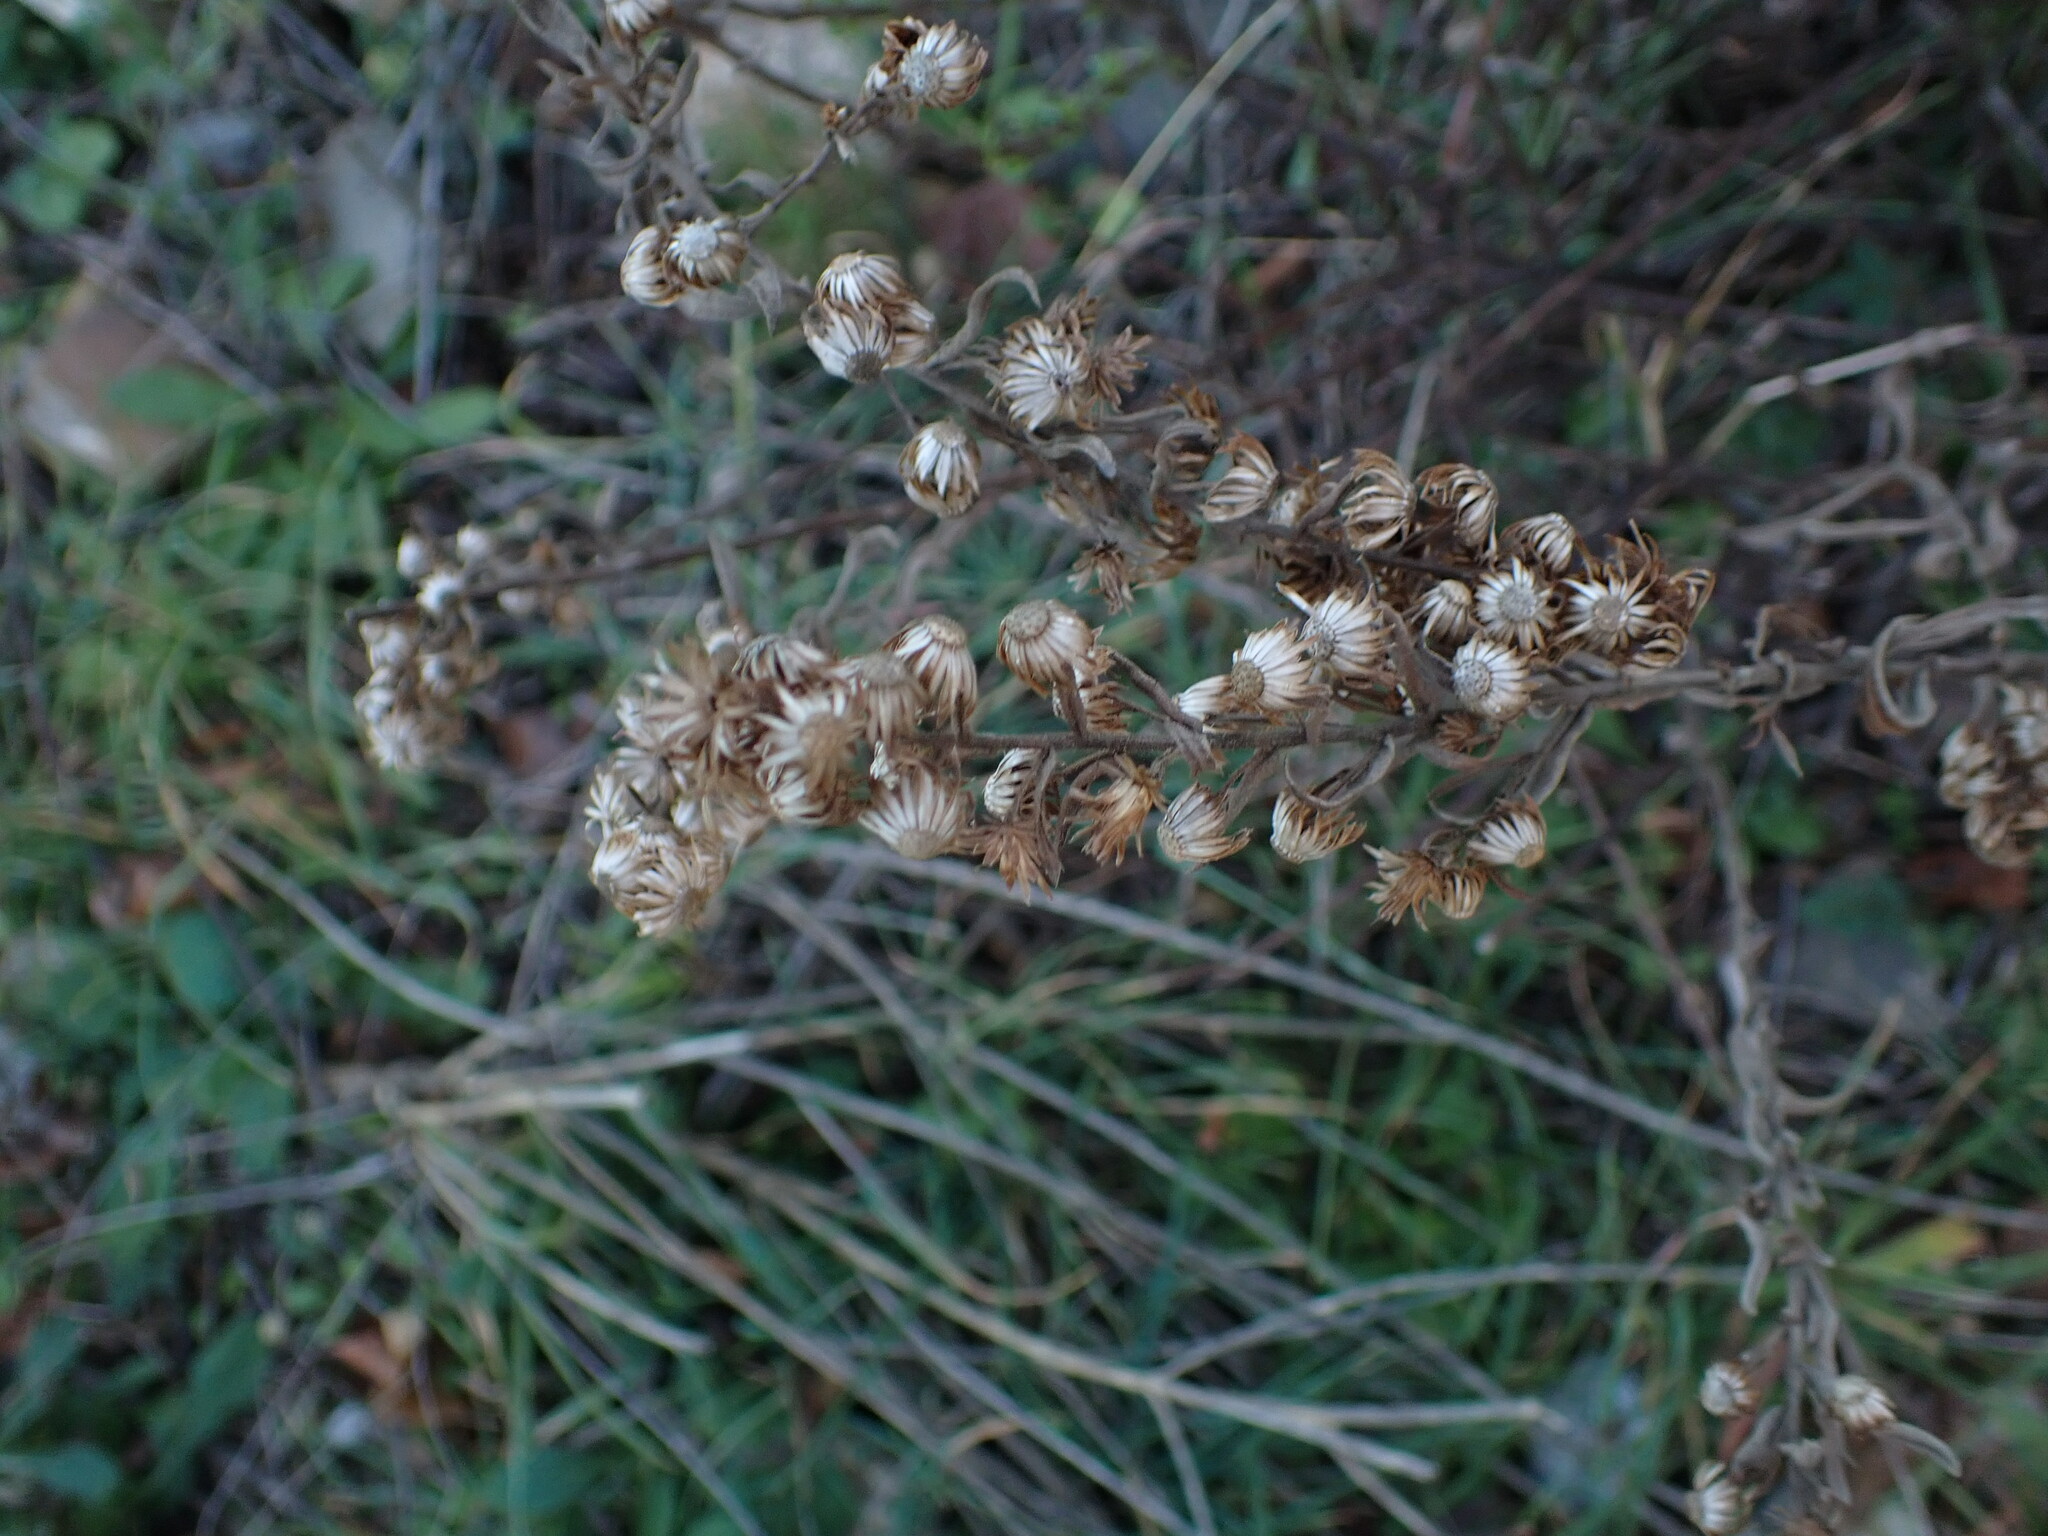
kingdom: Plantae
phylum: Tracheophyta
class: Magnoliopsida
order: Asterales
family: Asteraceae
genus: Dittrichia
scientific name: Dittrichia viscosa
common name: Woody fleabane
